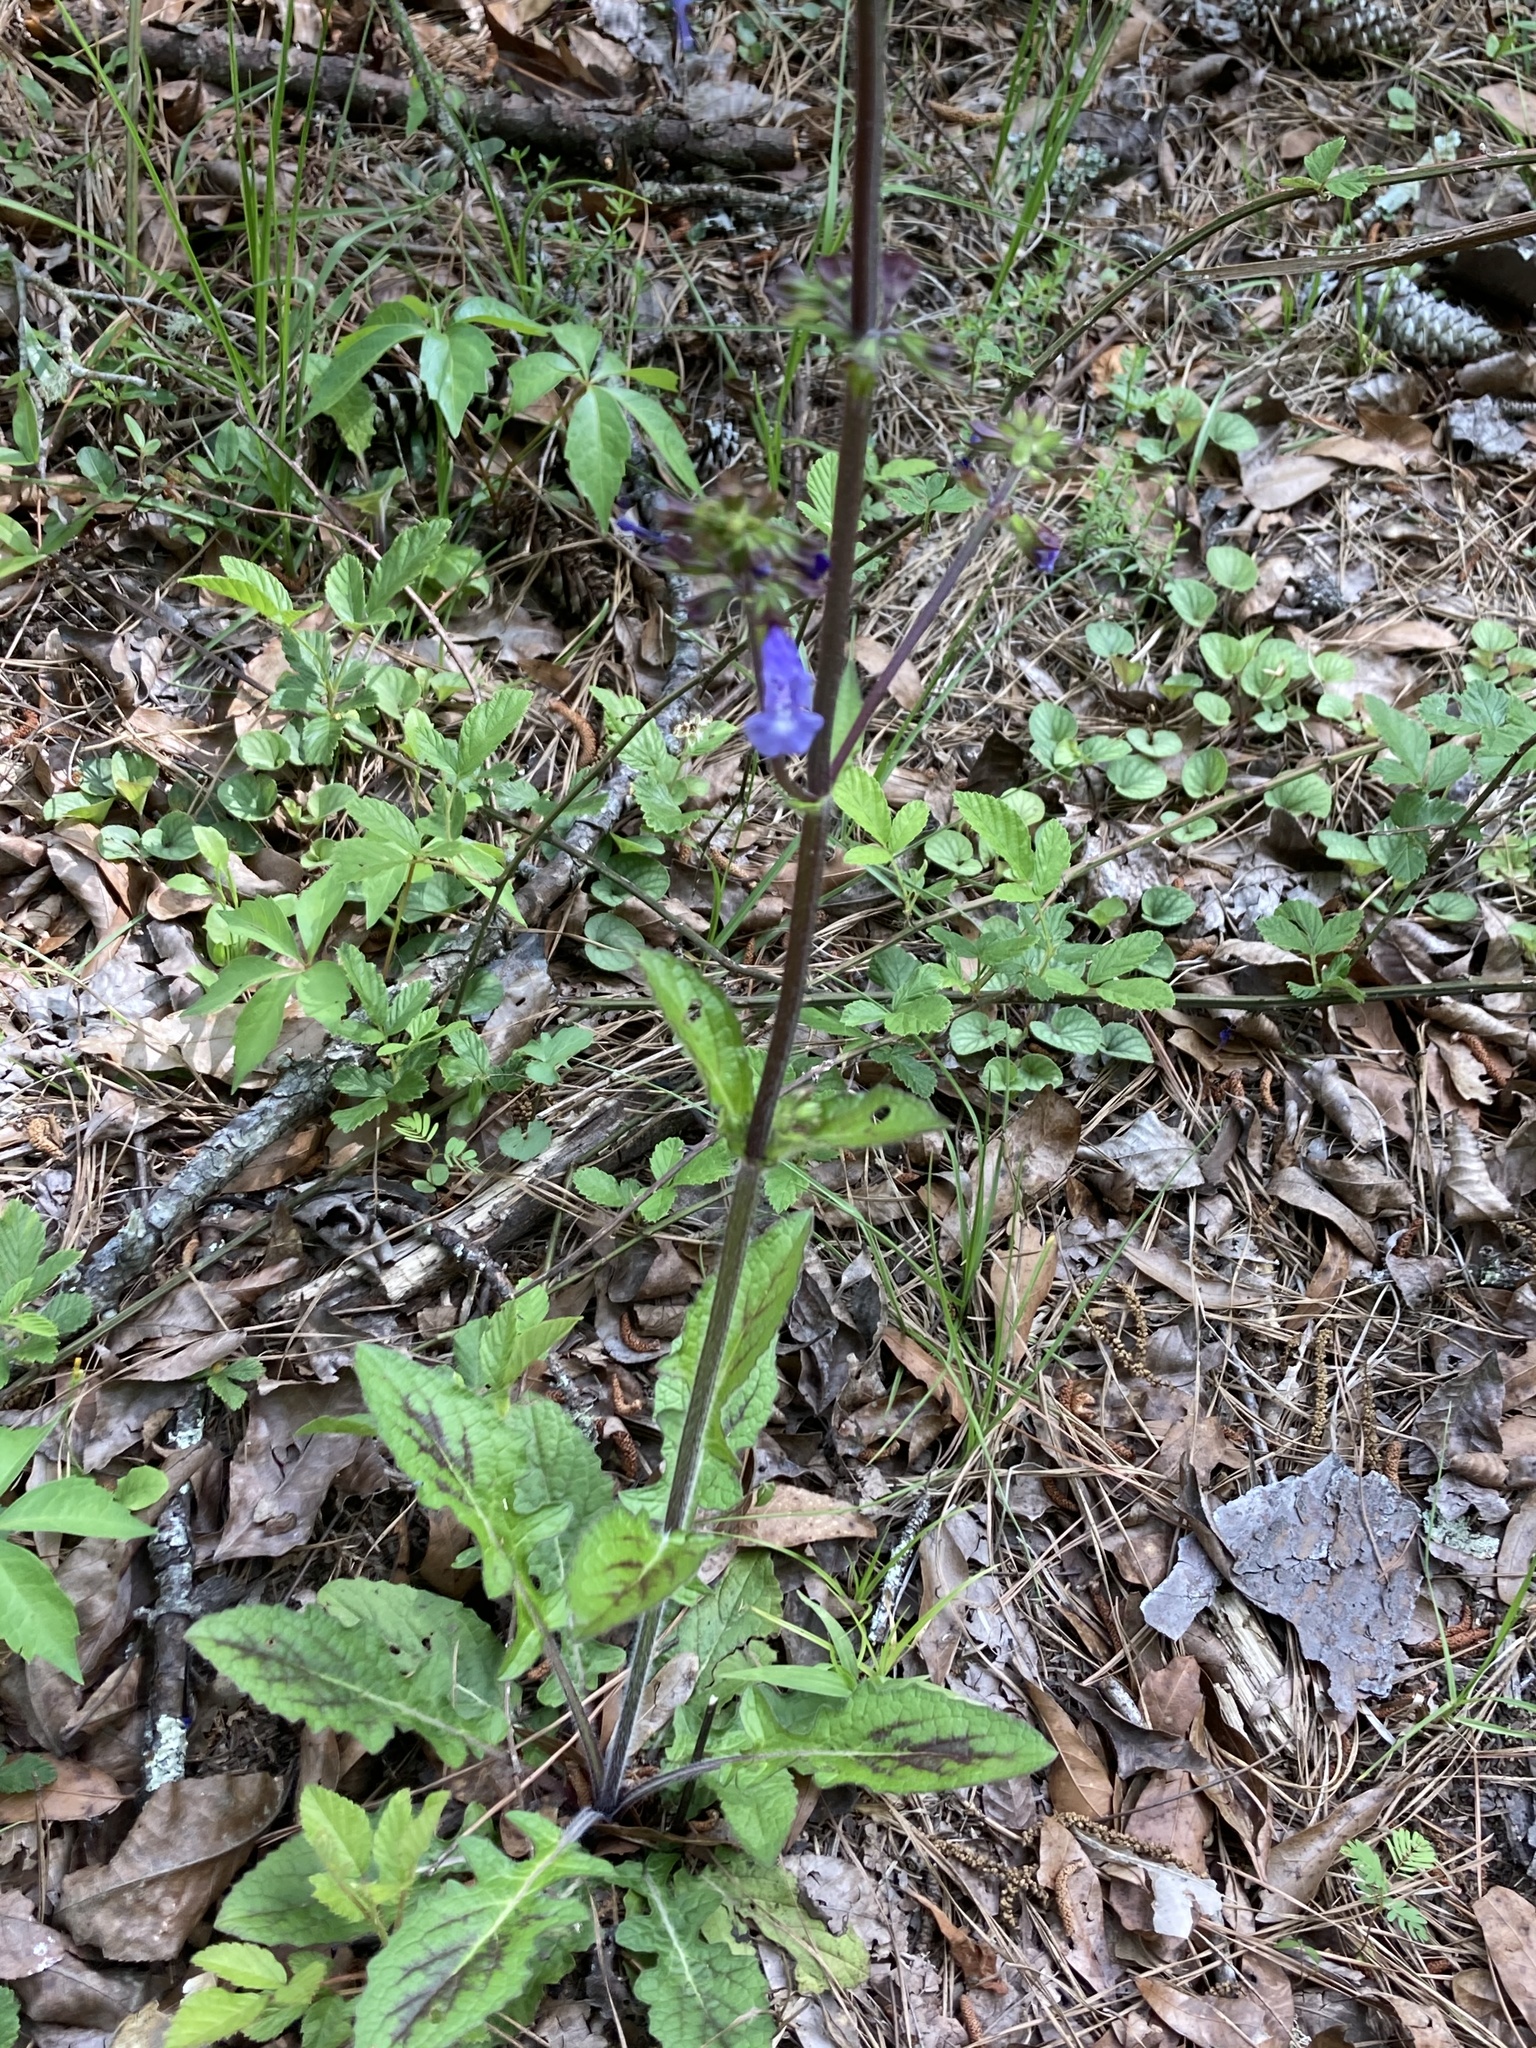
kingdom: Plantae
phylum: Tracheophyta
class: Magnoliopsida
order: Lamiales
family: Lamiaceae
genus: Salvia
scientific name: Salvia lyrata
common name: Cancerweed
